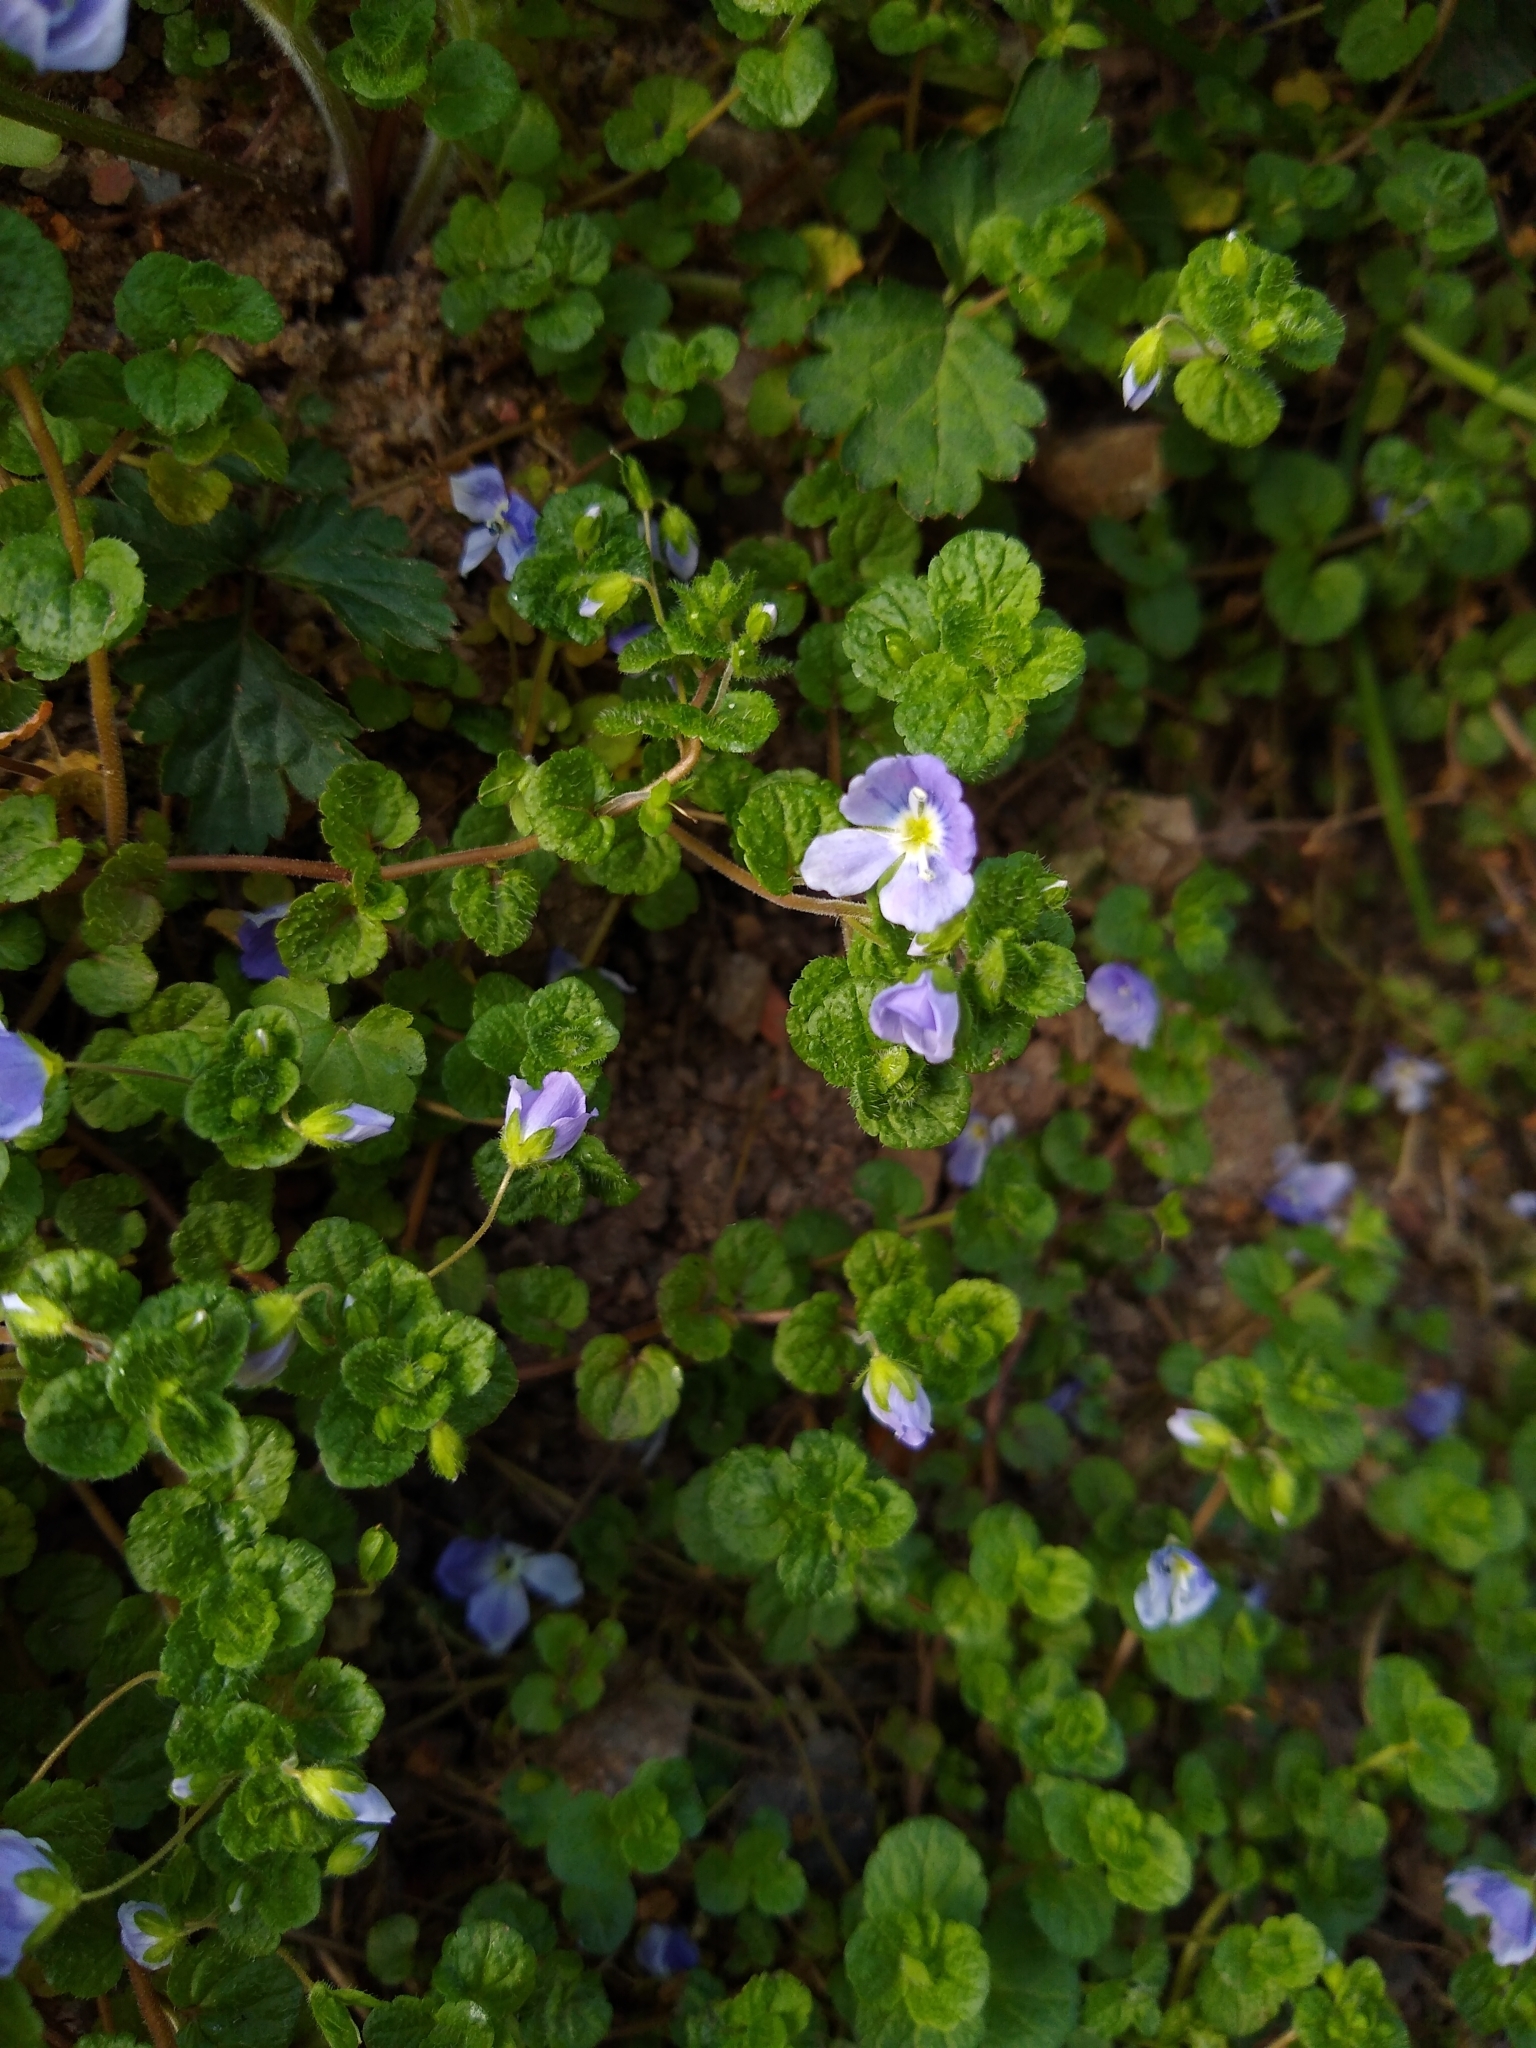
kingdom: Plantae
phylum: Tracheophyta
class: Magnoliopsida
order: Lamiales
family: Plantaginaceae
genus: Veronica
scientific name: Veronica filiformis
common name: Slender speedwell
